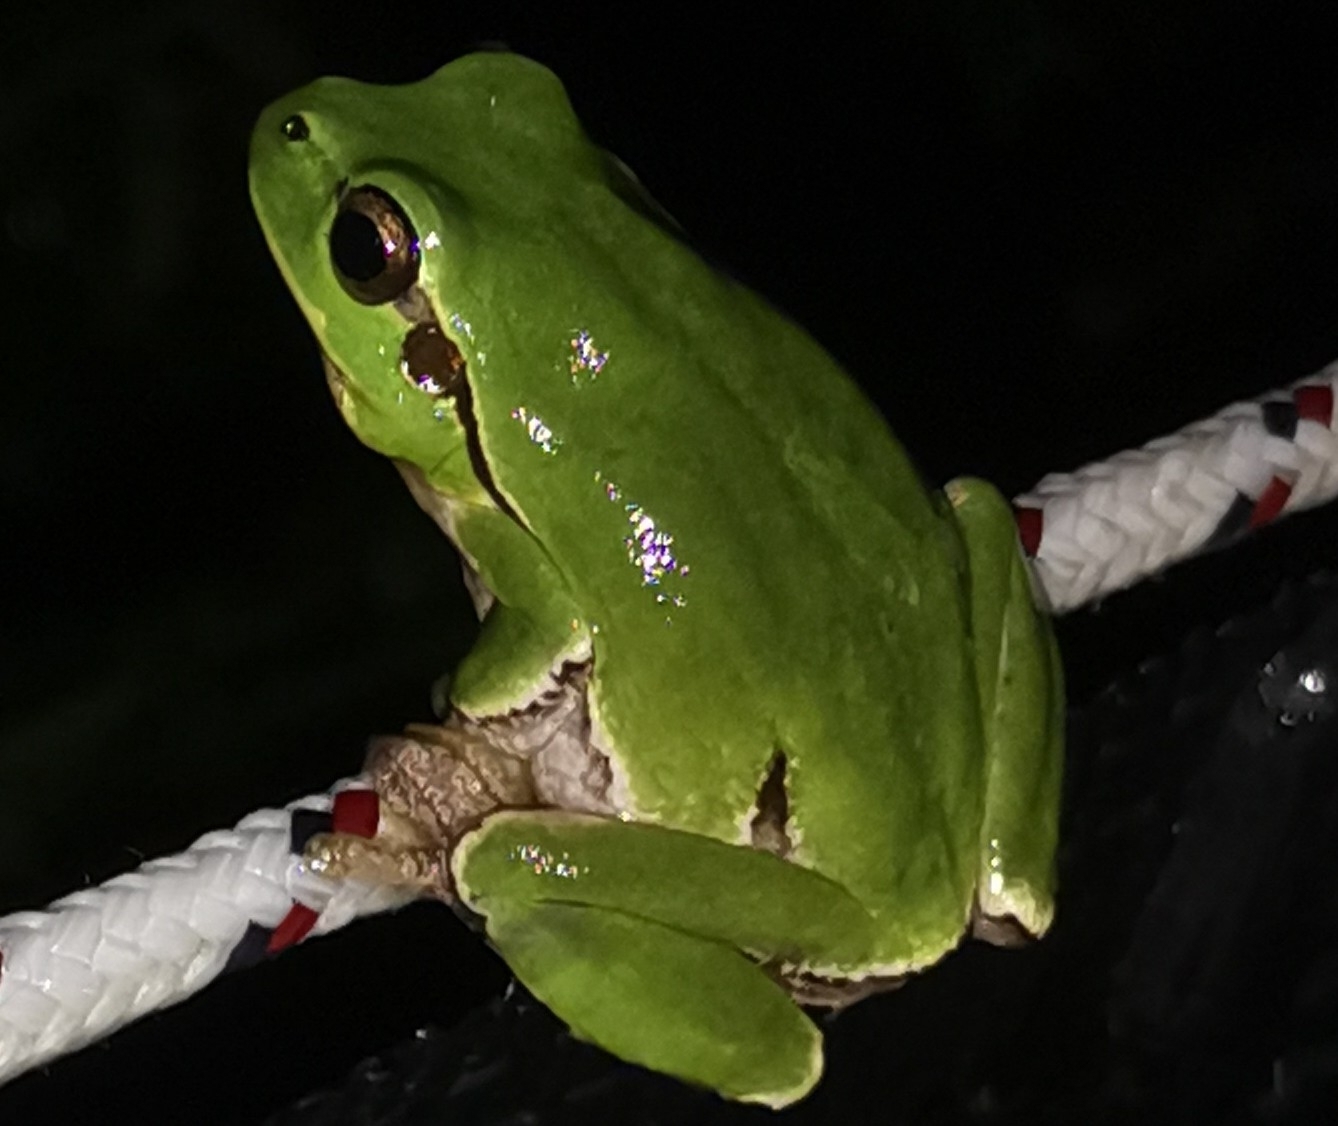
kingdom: Animalia
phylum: Chordata
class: Amphibia
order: Anura
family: Hylidae
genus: Hyla
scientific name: Hyla intermedia
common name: Italian tree frog
